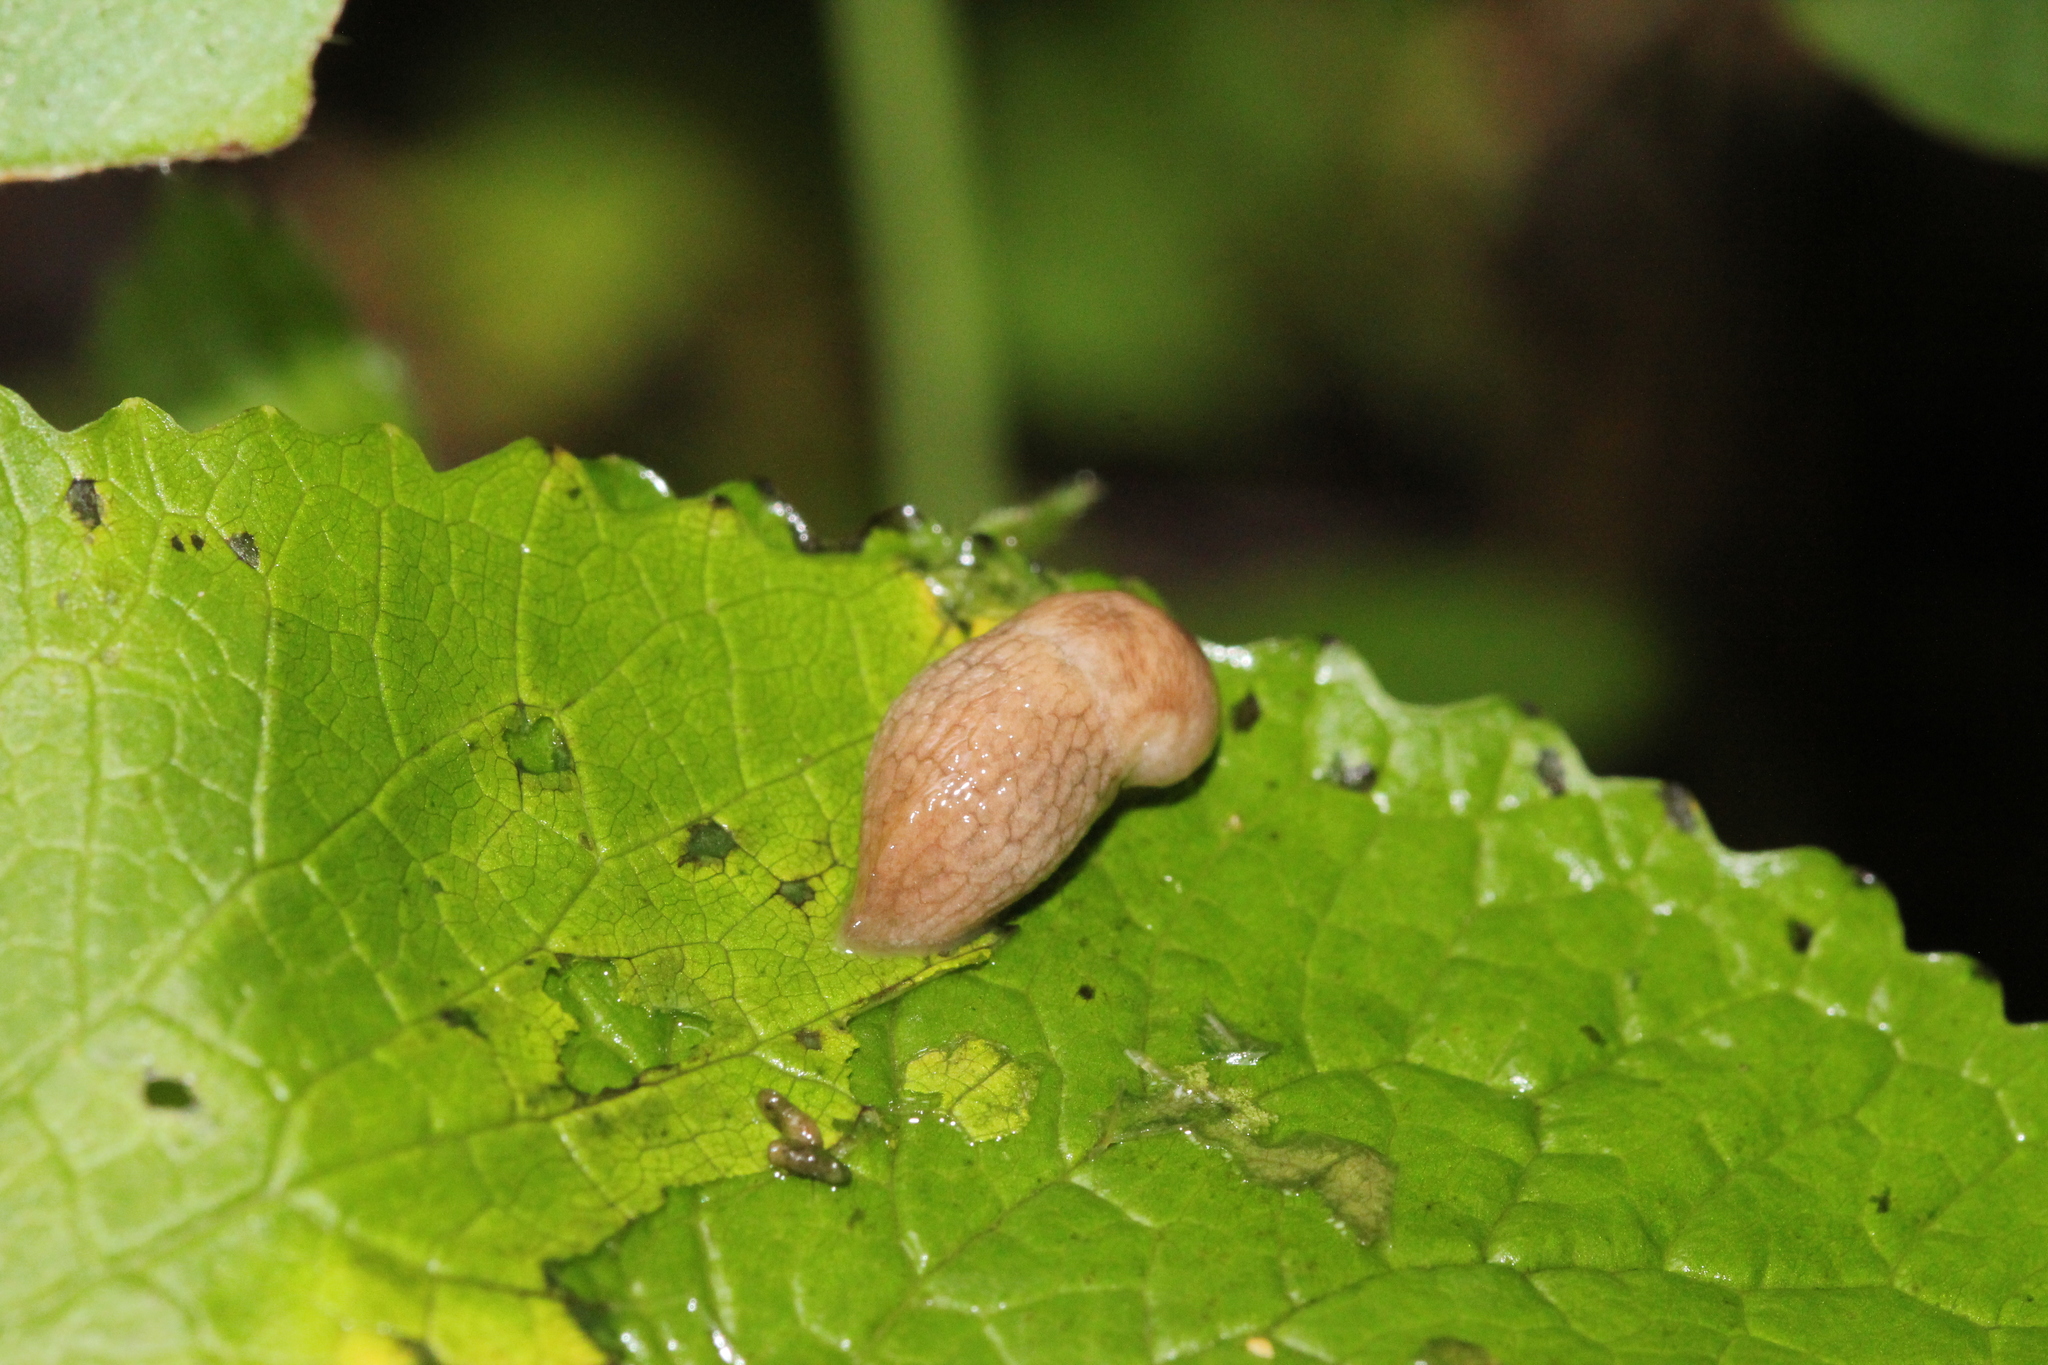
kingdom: Animalia
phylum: Mollusca
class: Gastropoda
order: Stylommatophora
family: Agriolimacidae
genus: Deroceras
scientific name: Deroceras reticulatum
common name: Gray field slug
